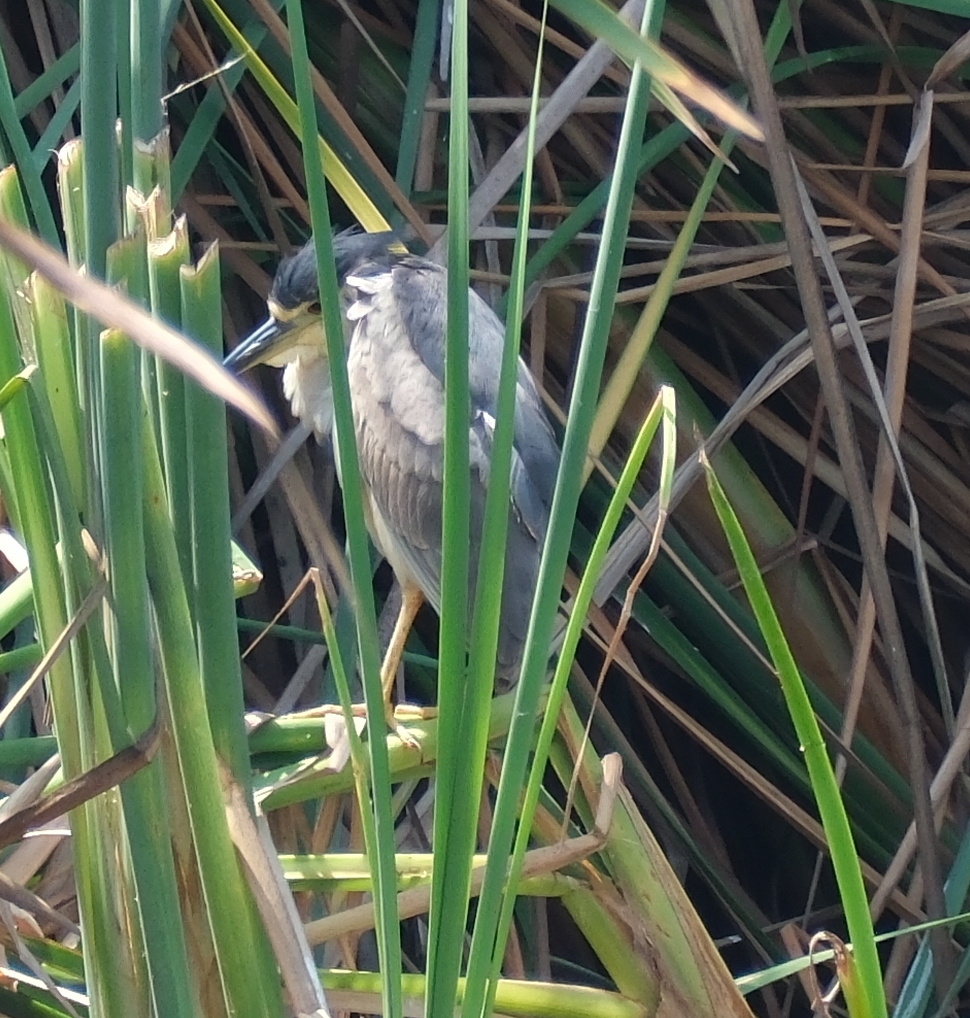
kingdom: Animalia
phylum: Chordata
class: Aves
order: Pelecaniformes
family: Ardeidae
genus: Nycticorax
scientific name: Nycticorax nycticorax
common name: Black-crowned night heron
